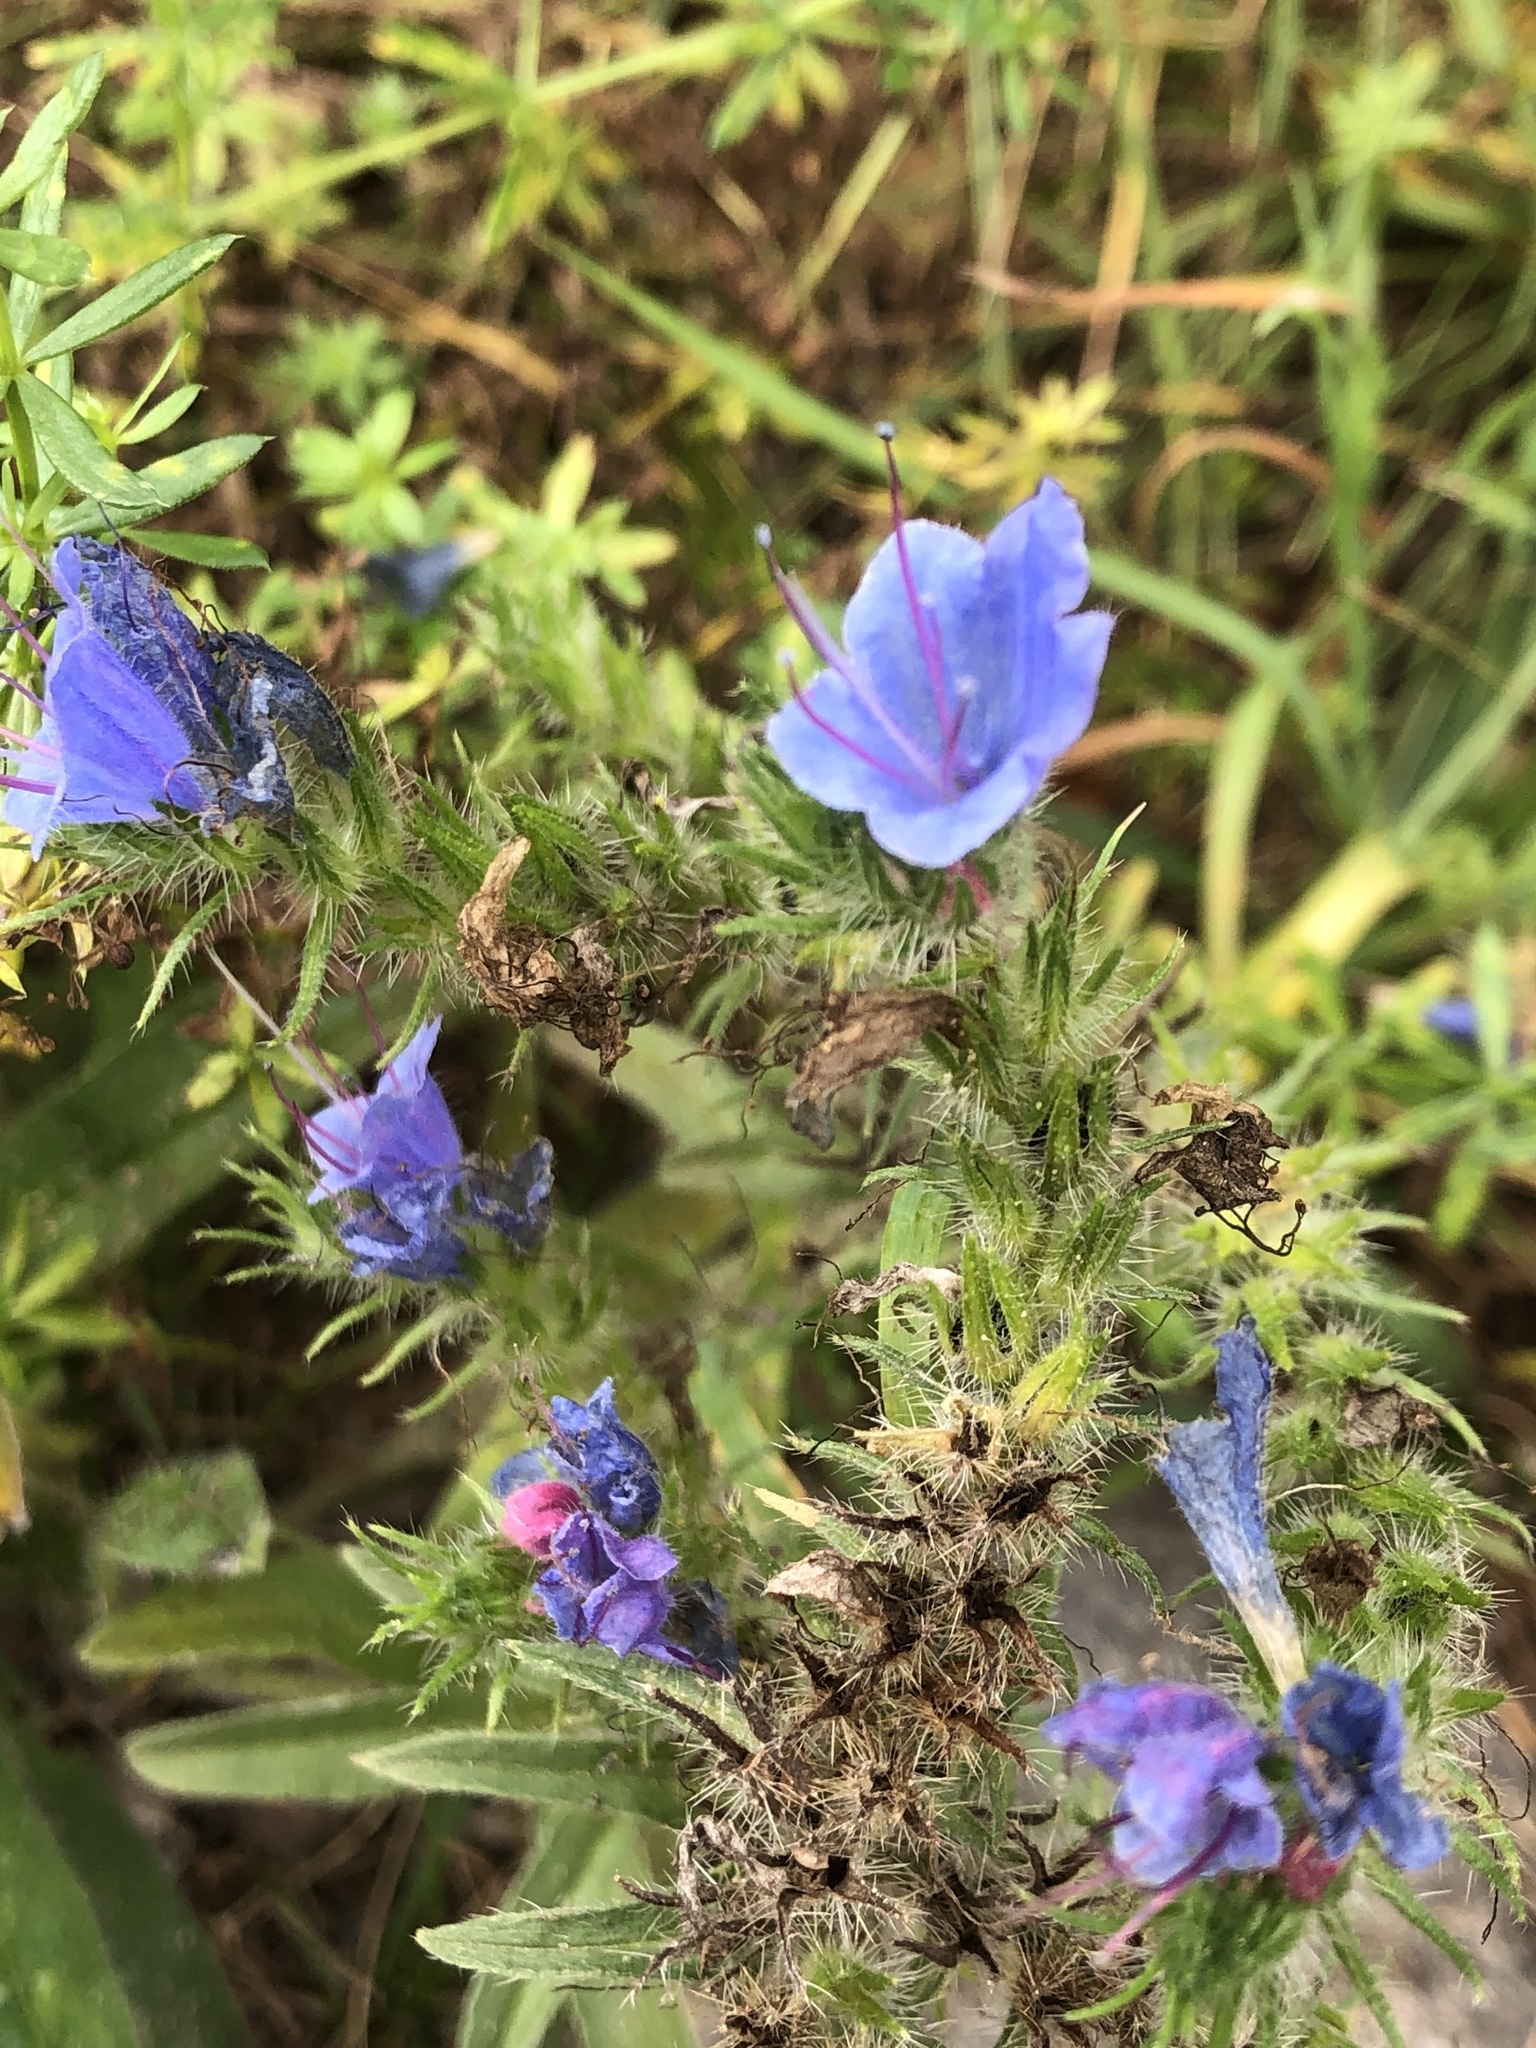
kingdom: Plantae
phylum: Tracheophyta
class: Magnoliopsida
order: Boraginales
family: Boraginaceae
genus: Echium
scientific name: Echium vulgare
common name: Common viper's bugloss
